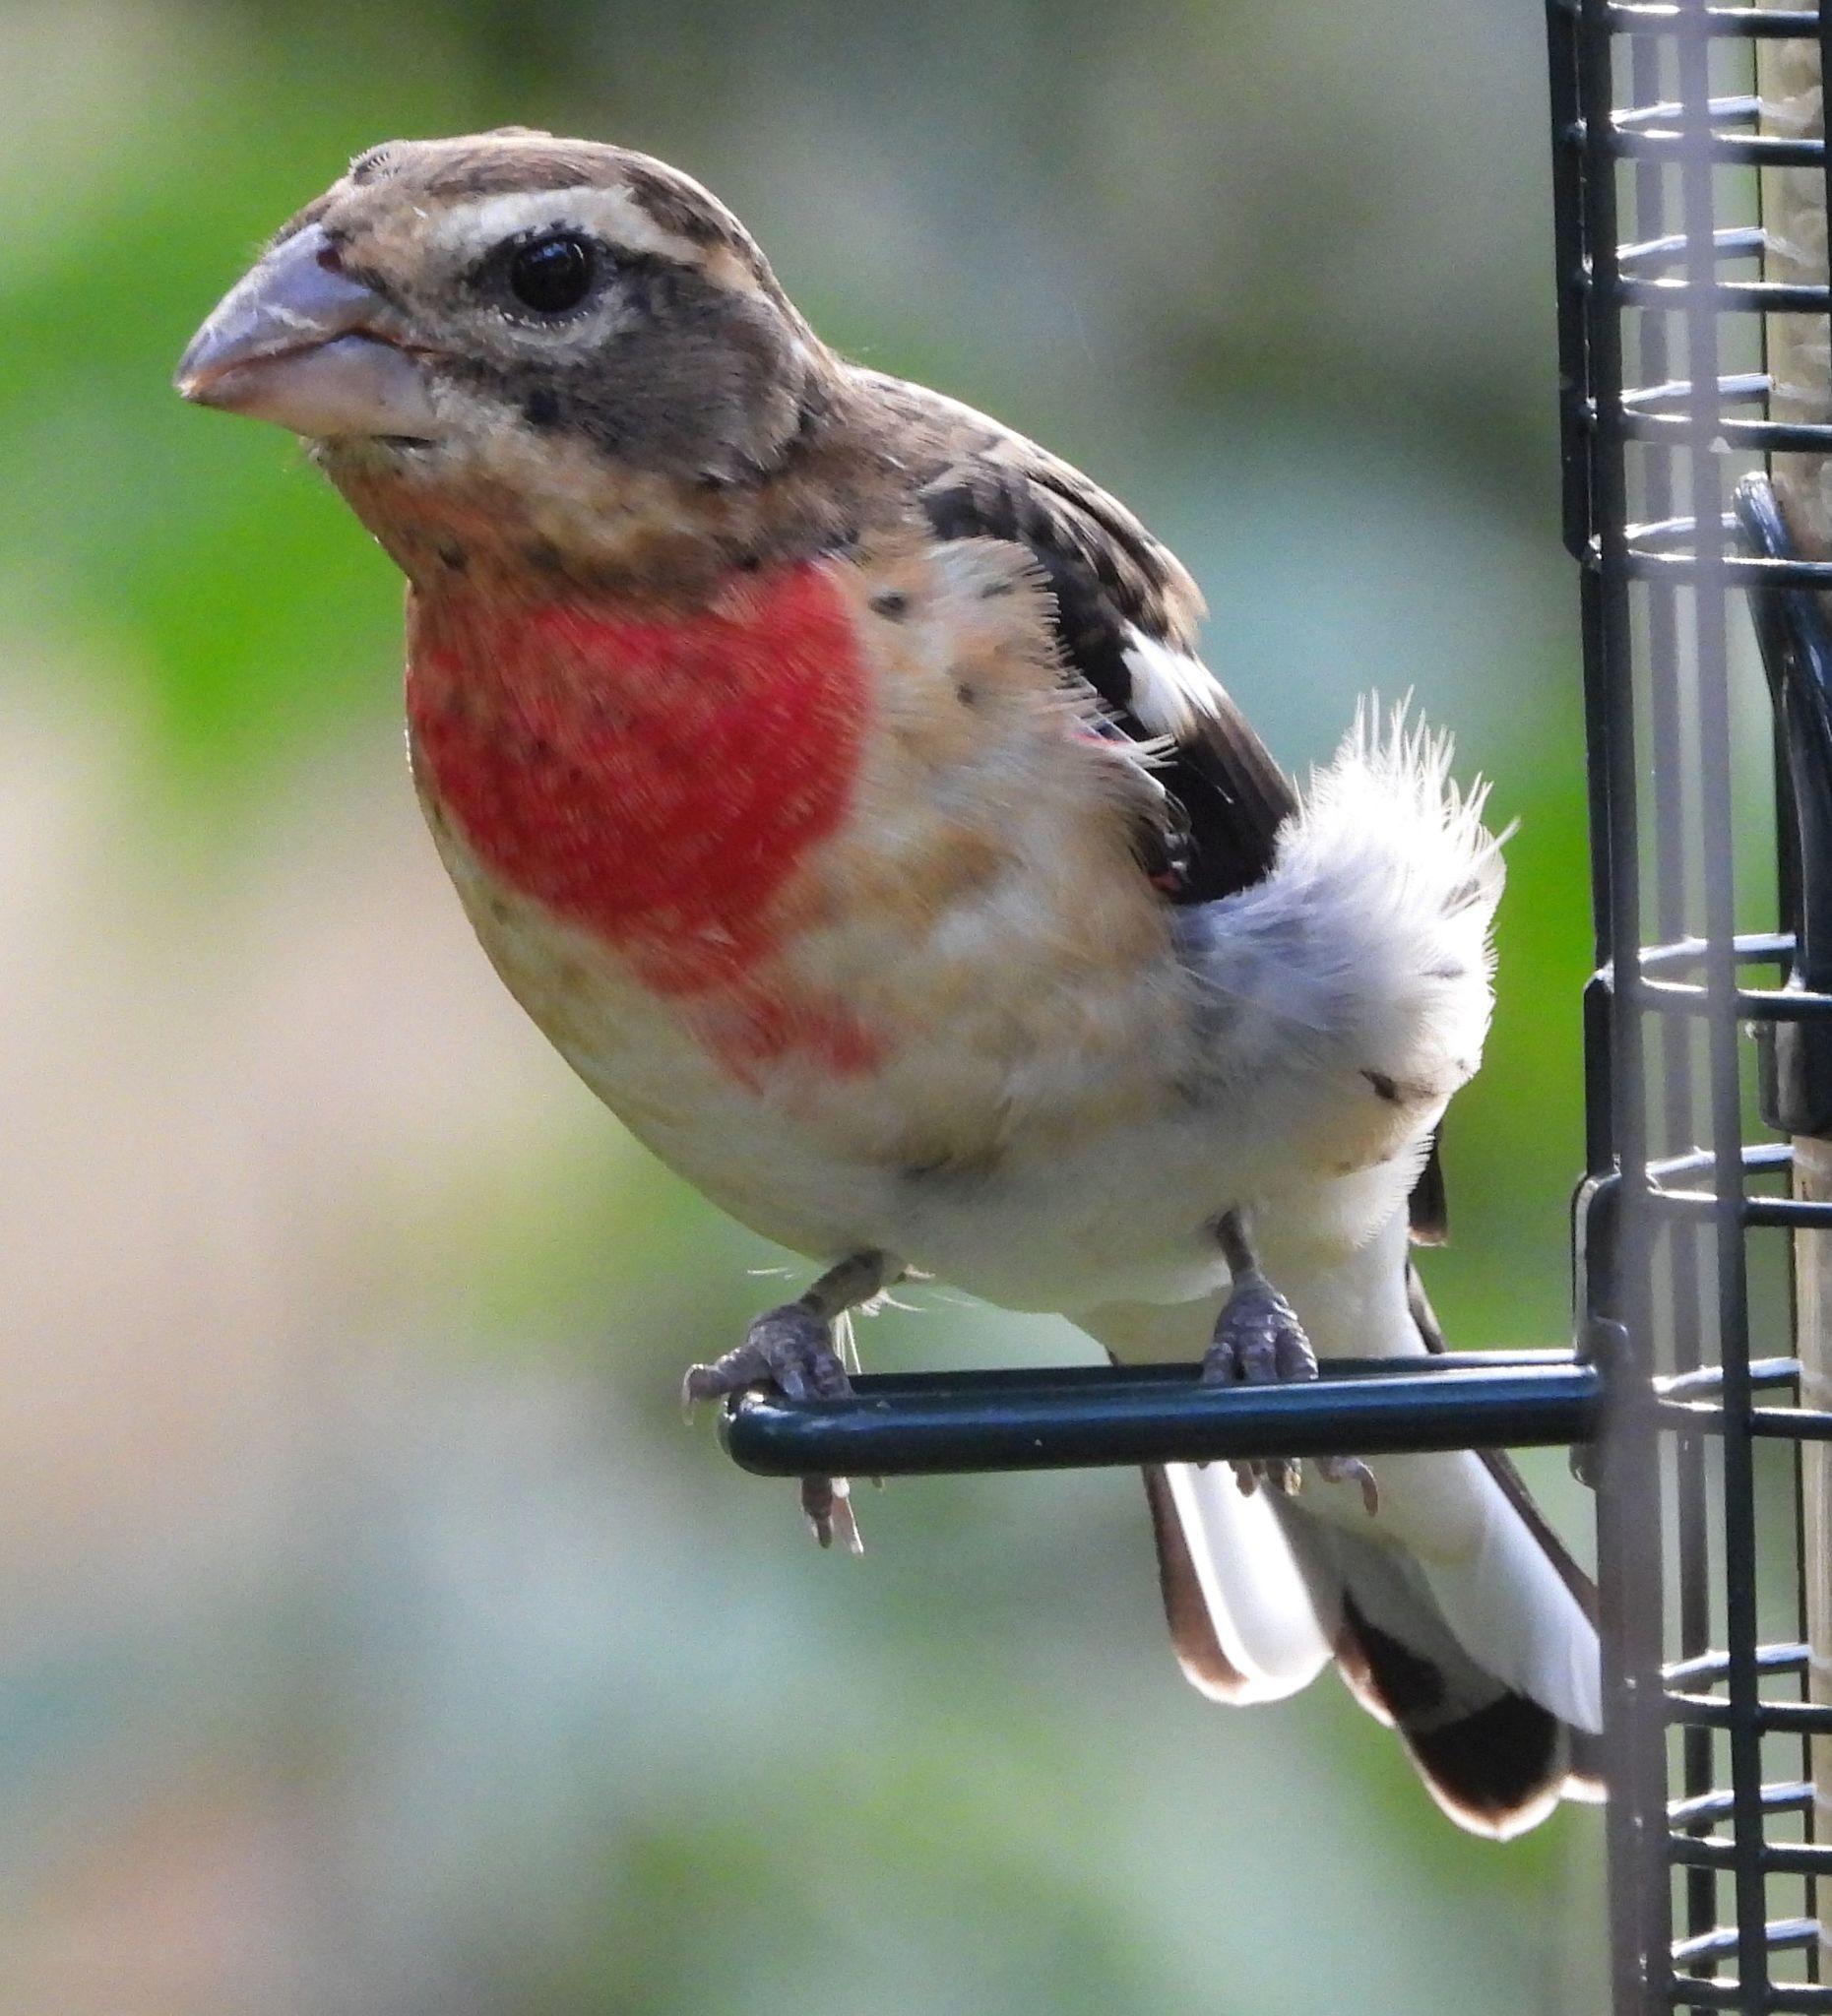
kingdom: Animalia
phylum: Chordata
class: Aves
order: Passeriformes
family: Cardinalidae
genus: Pheucticus
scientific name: Pheucticus ludovicianus
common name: Rose-breasted grosbeak
